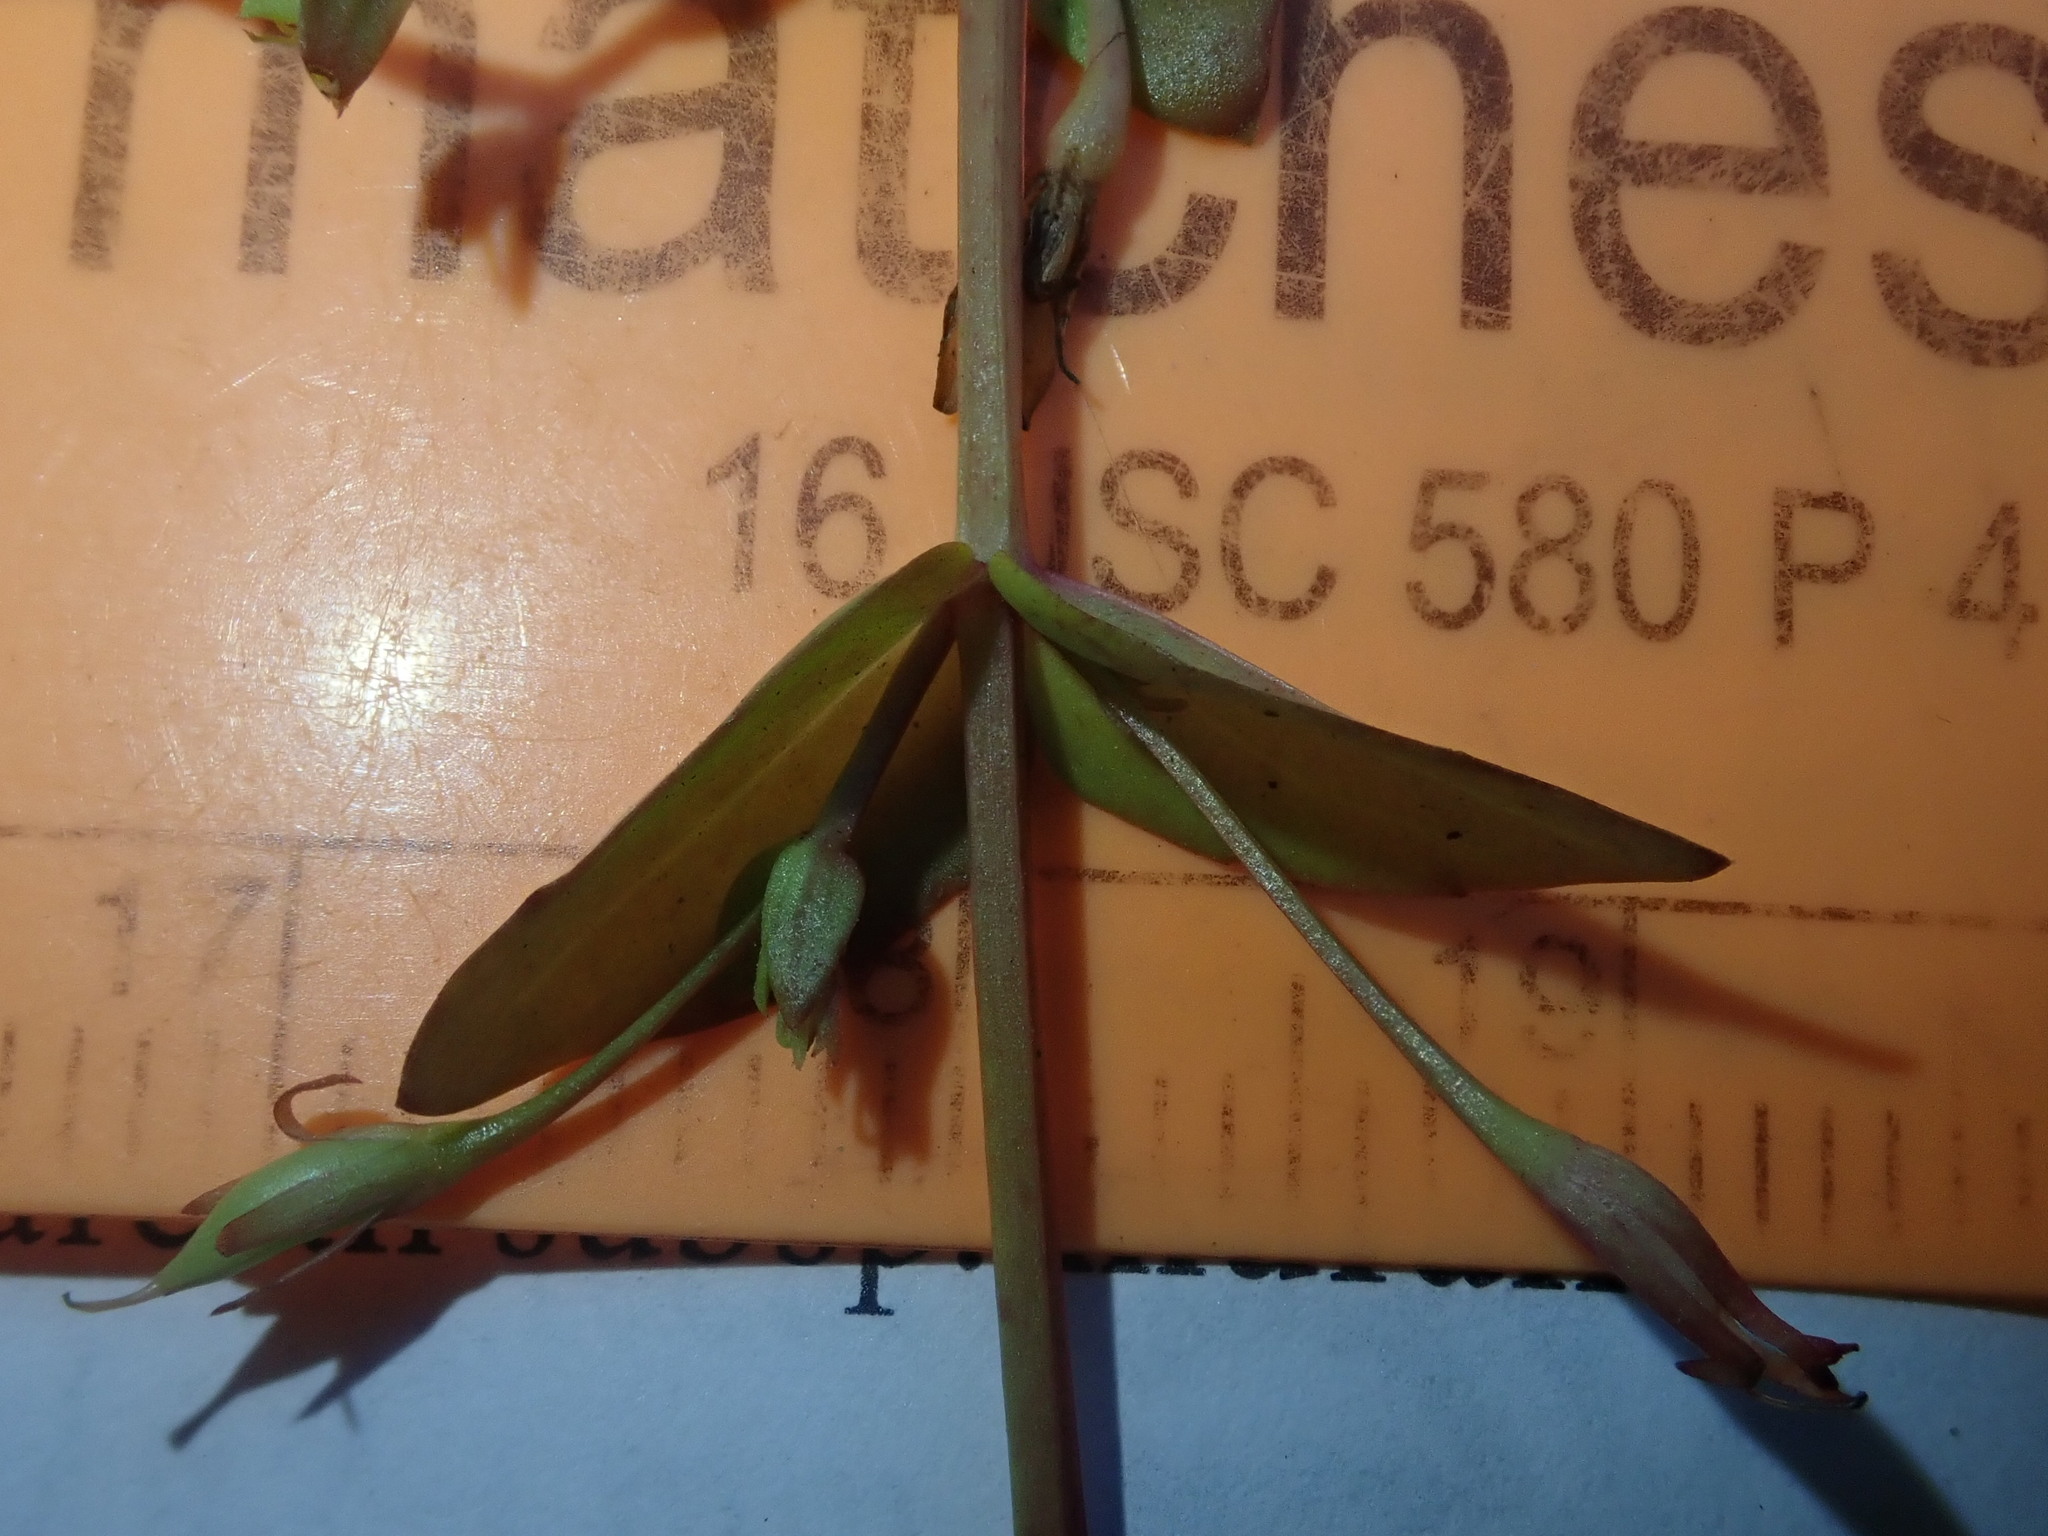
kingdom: Plantae
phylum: Tracheophyta
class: Magnoliopsida
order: Lamiales
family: Linderniaceae
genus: Lindernia
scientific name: Lindernia dubia
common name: Annual false pimpernel
